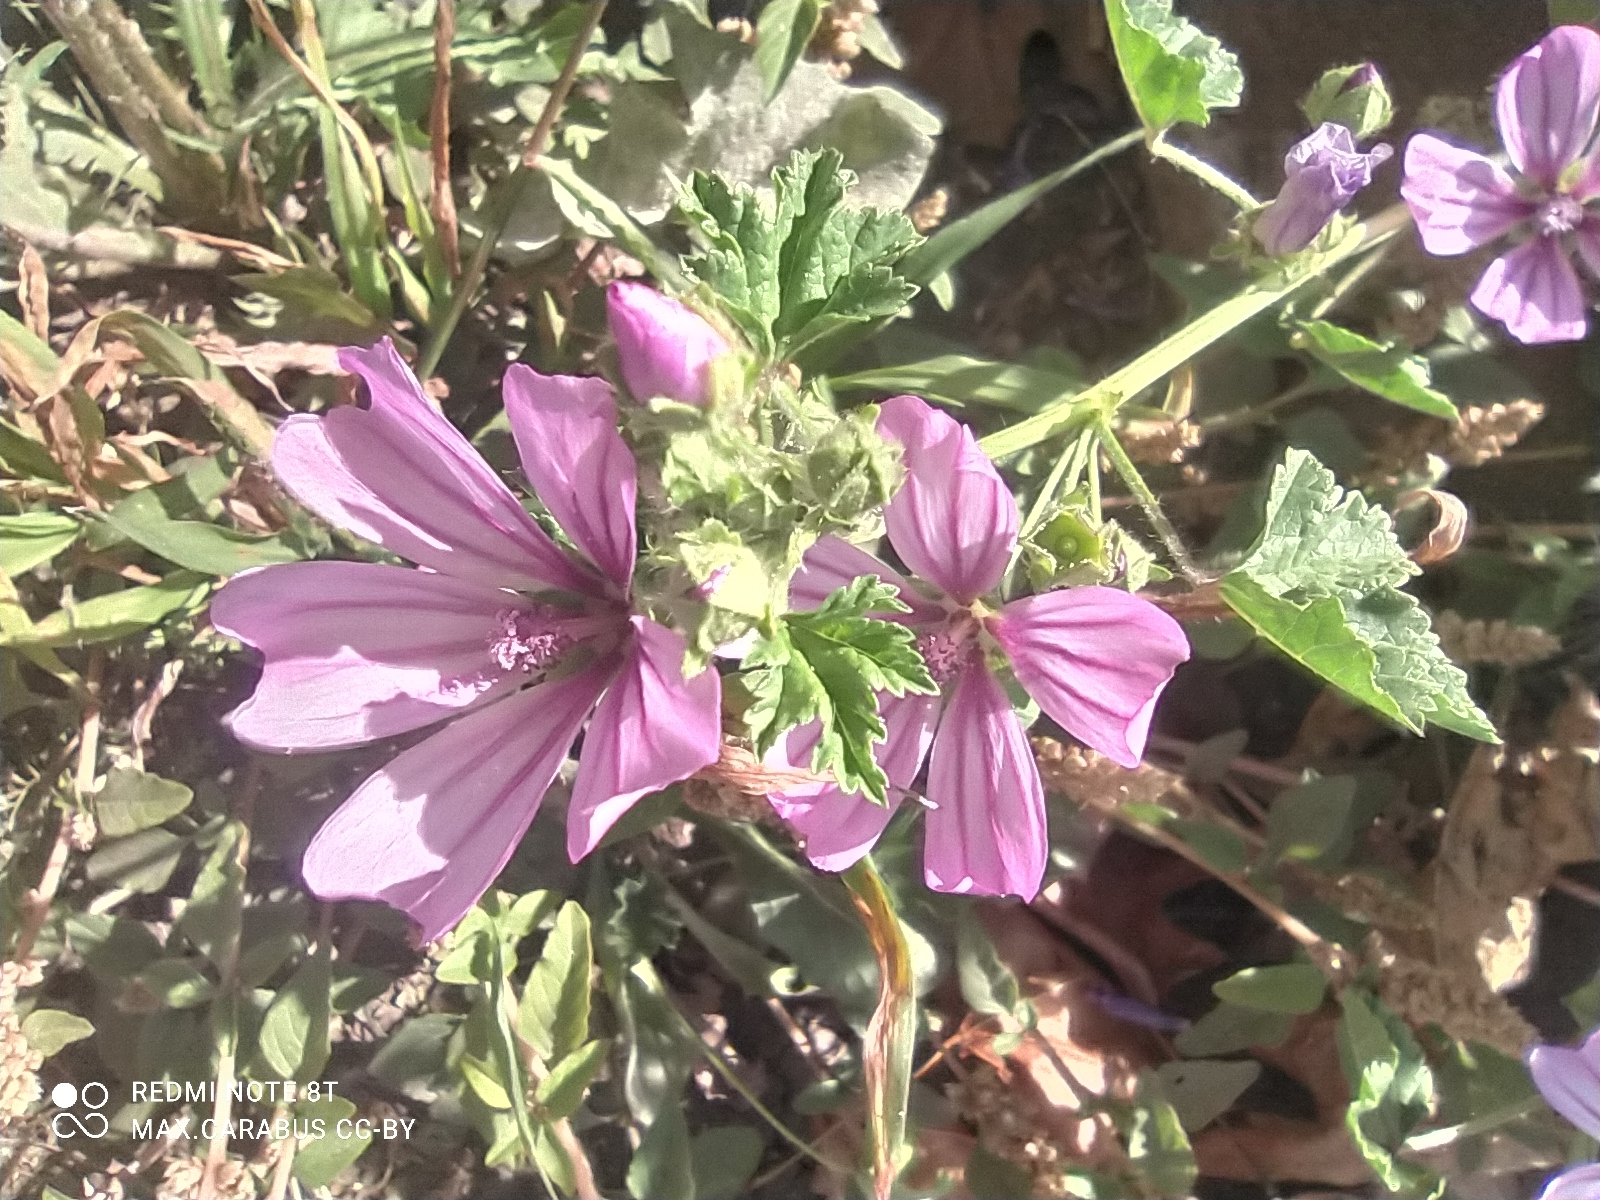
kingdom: Plantae
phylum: Tracheophyta
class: Magnoliopsida
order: Malvales
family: Malvaceae
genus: Malva
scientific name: Malva sylvestris
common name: Common mallow
